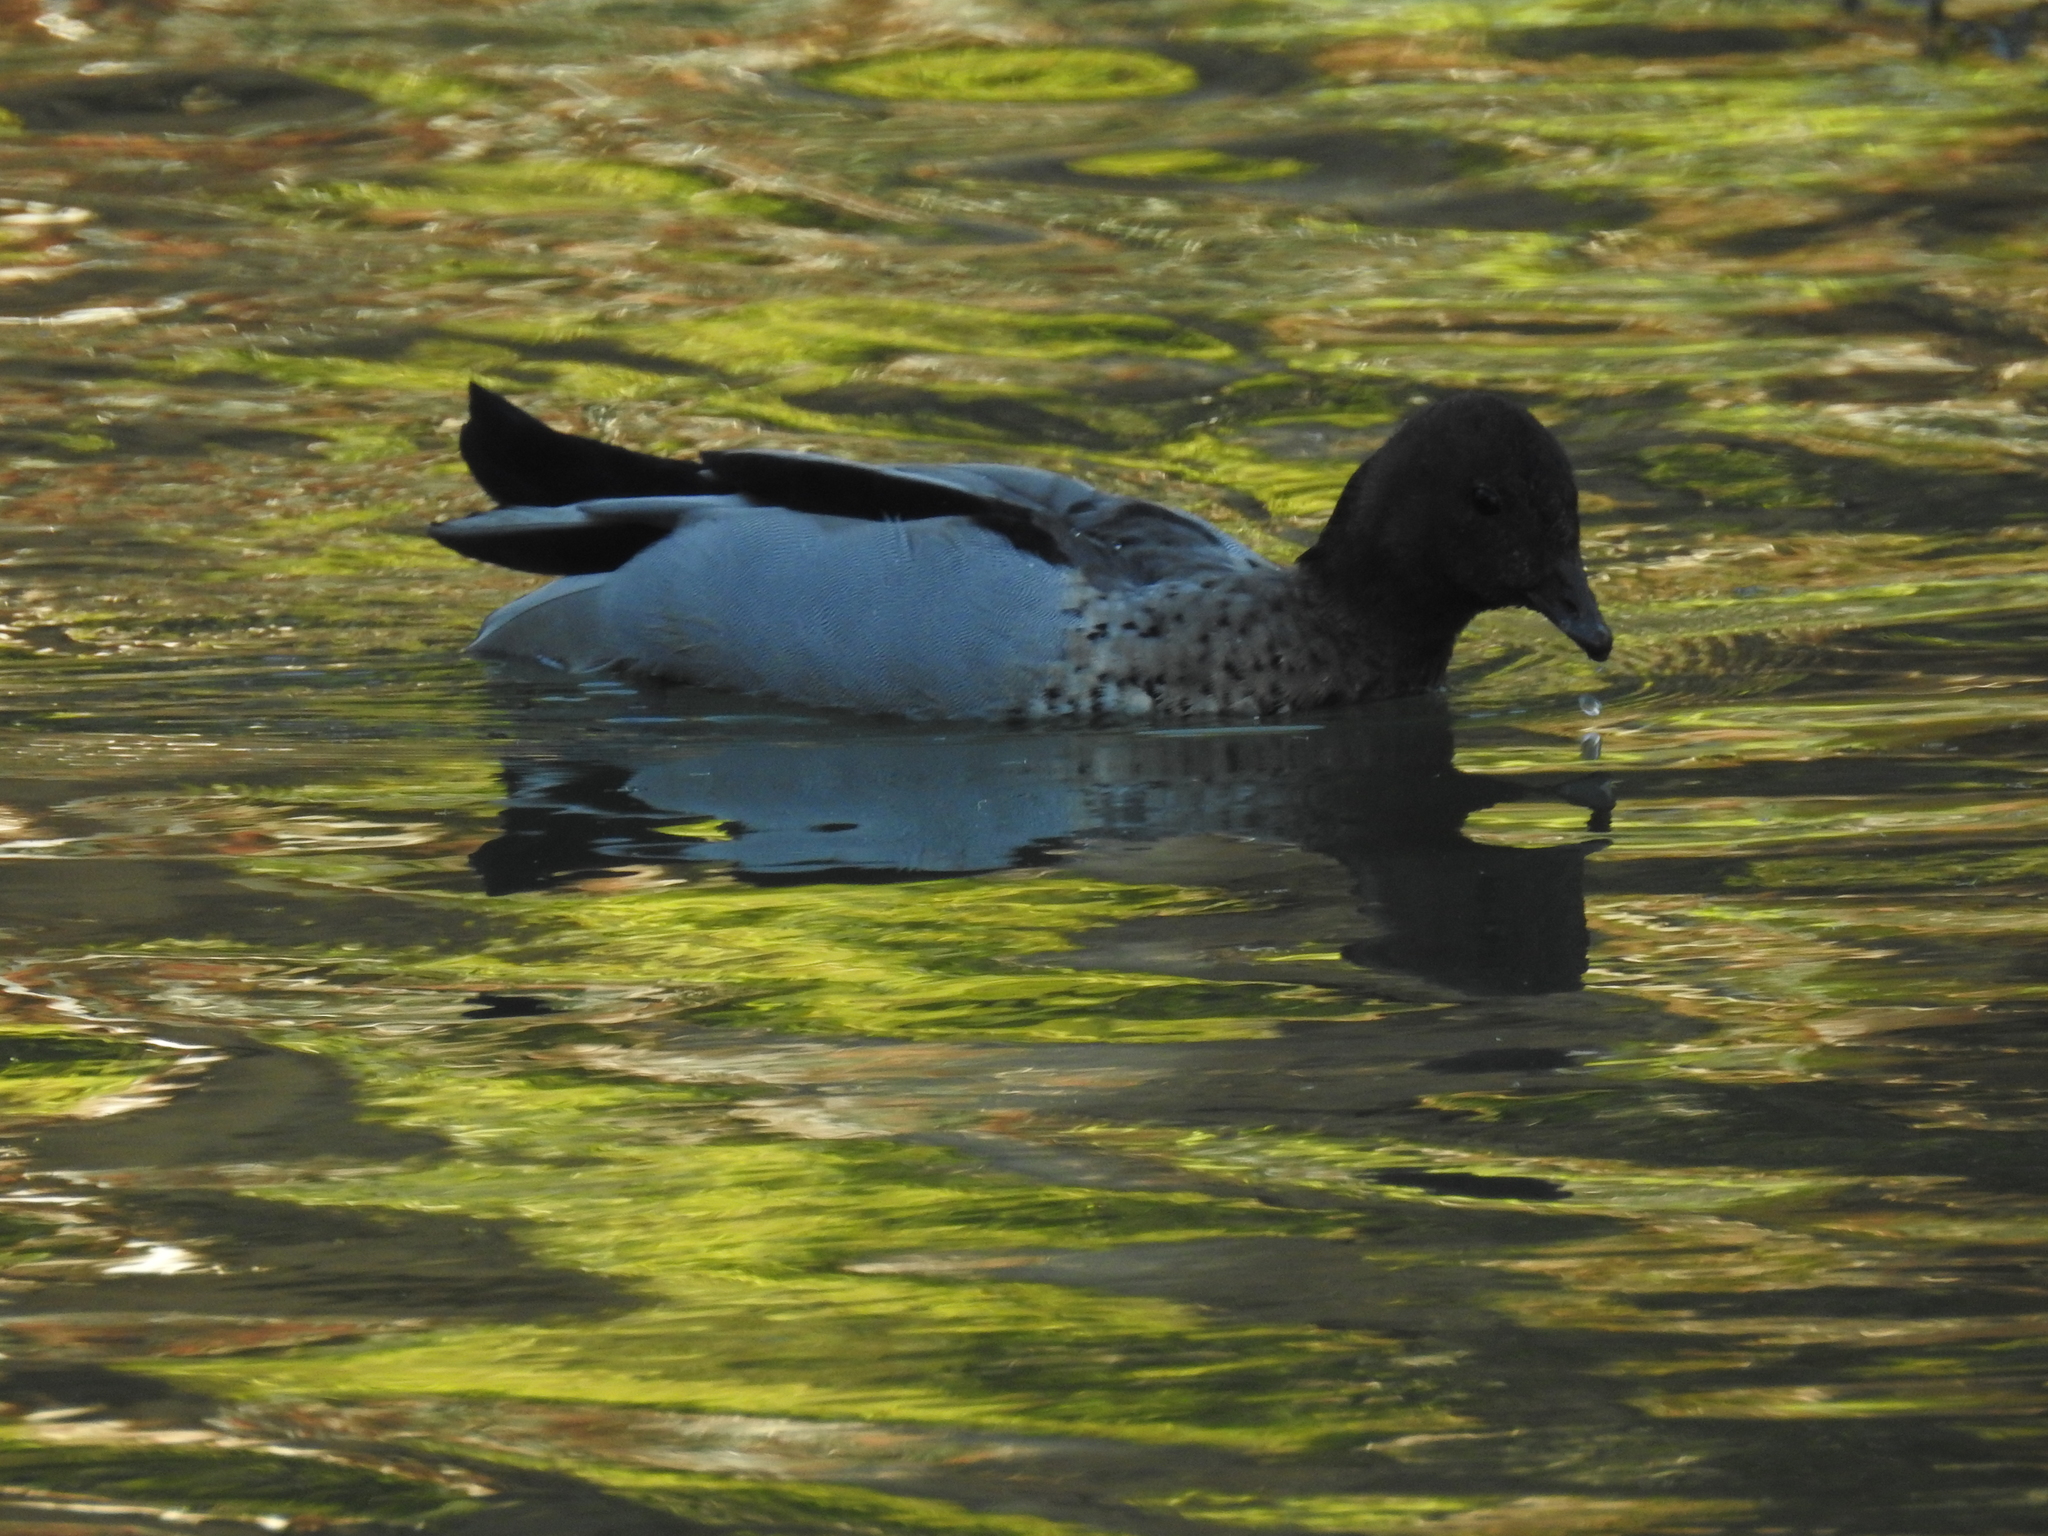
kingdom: Animalia
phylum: Chordata
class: Aves
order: Anseriformes
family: Anatidae
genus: Chenonetta
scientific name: Chenonetta jubata
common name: Maned duck
